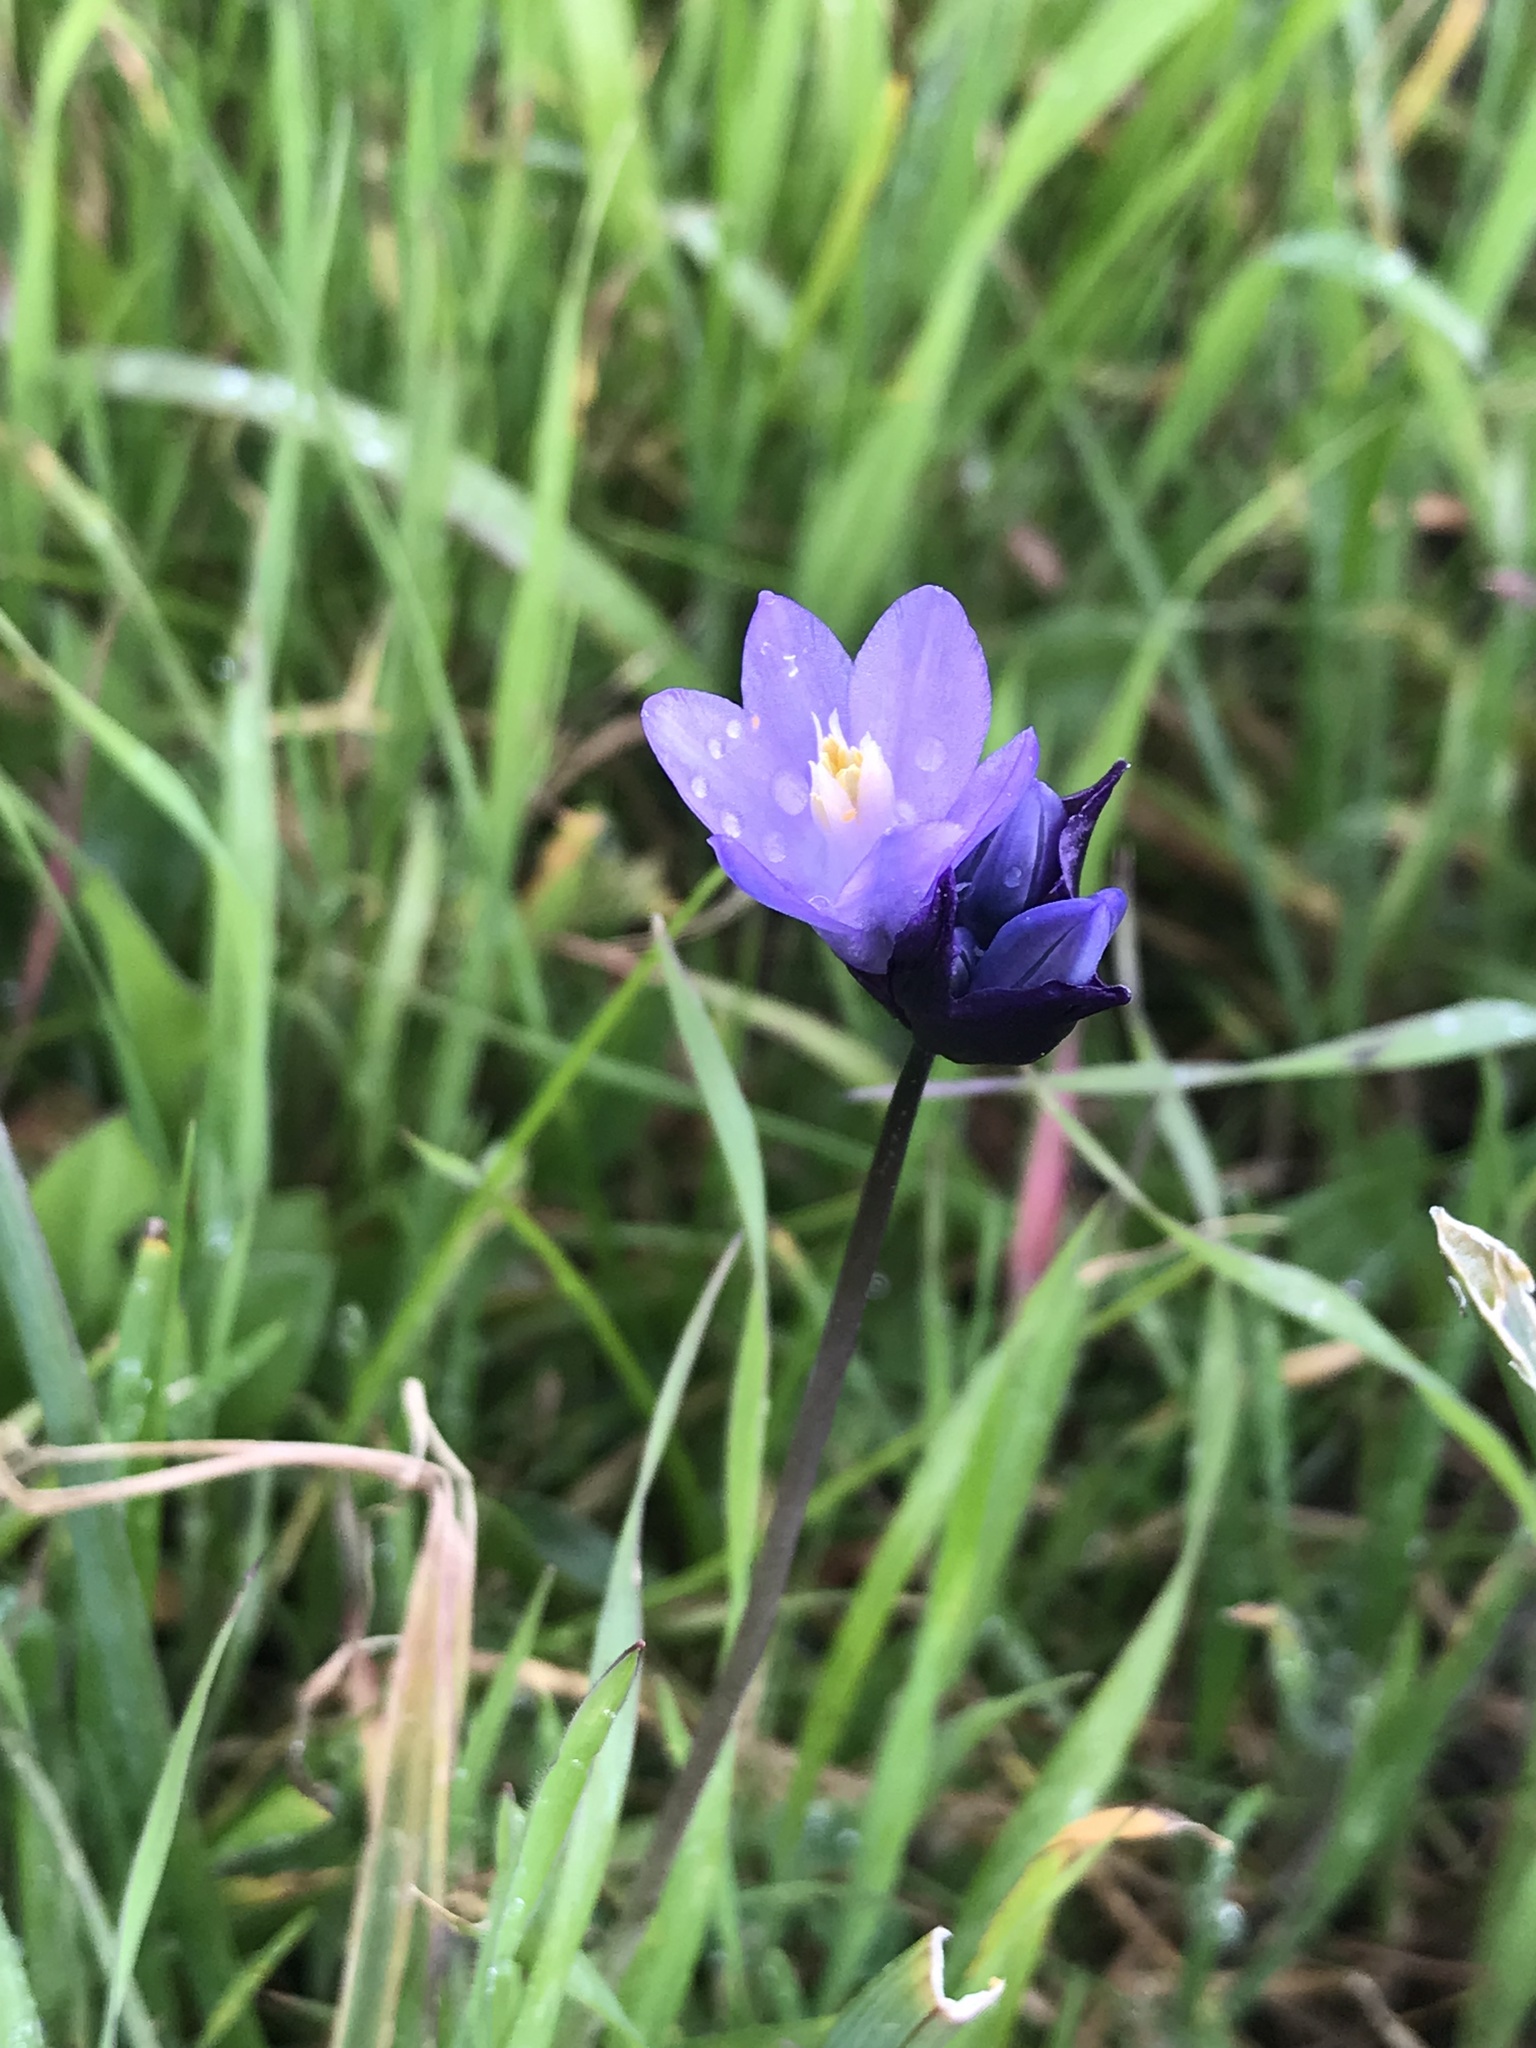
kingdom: Plantae
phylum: Tracheophyta
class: Liliopsida
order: Asparagales
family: Asparagaceae
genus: Dipterostemon
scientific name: Dipterostemon capitatus
